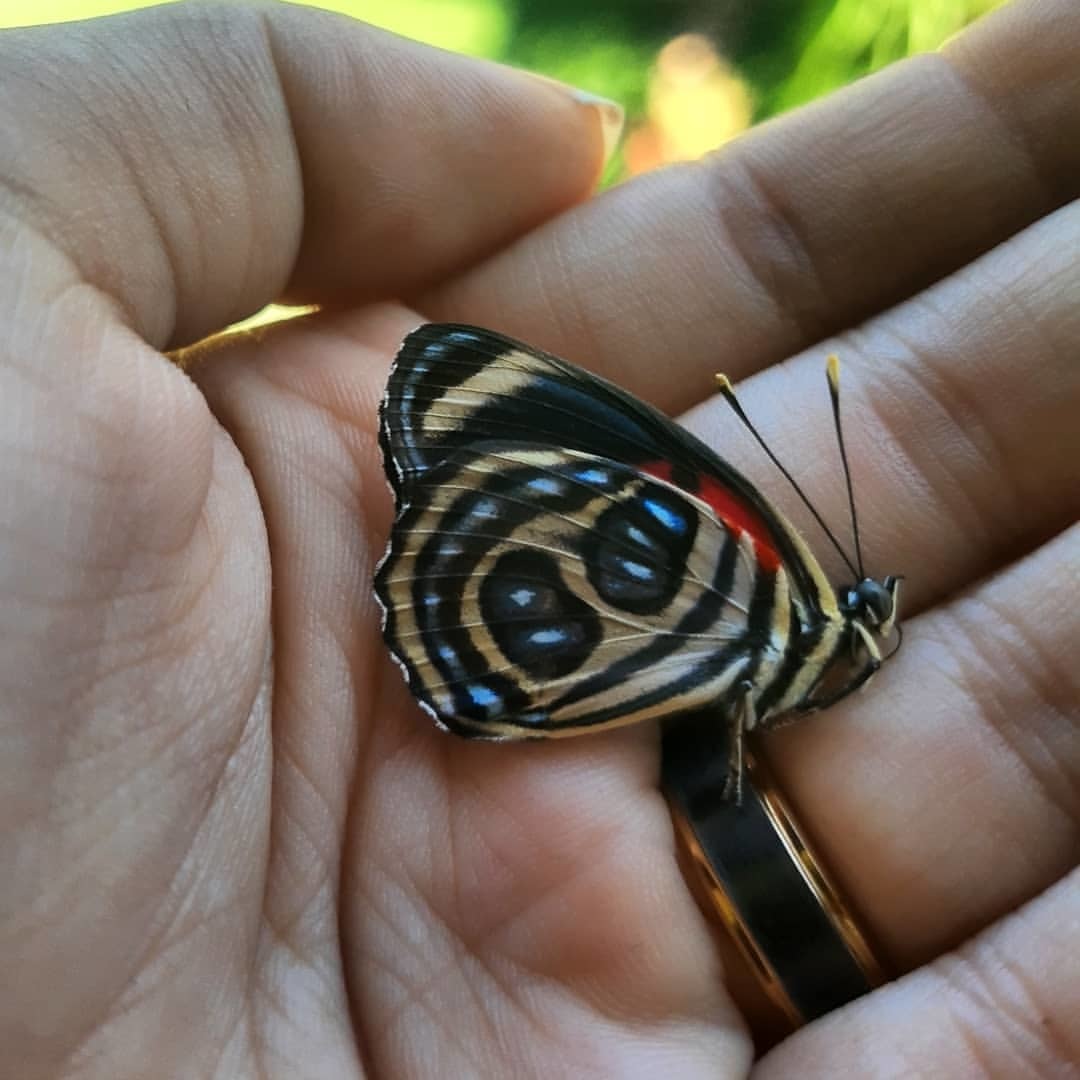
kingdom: Animalia
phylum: Arthropoda
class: Insecta
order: Lepidoptera
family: Nymphalidae
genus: Catagramma
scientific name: Catagramma pygas
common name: Godart's numberwing
